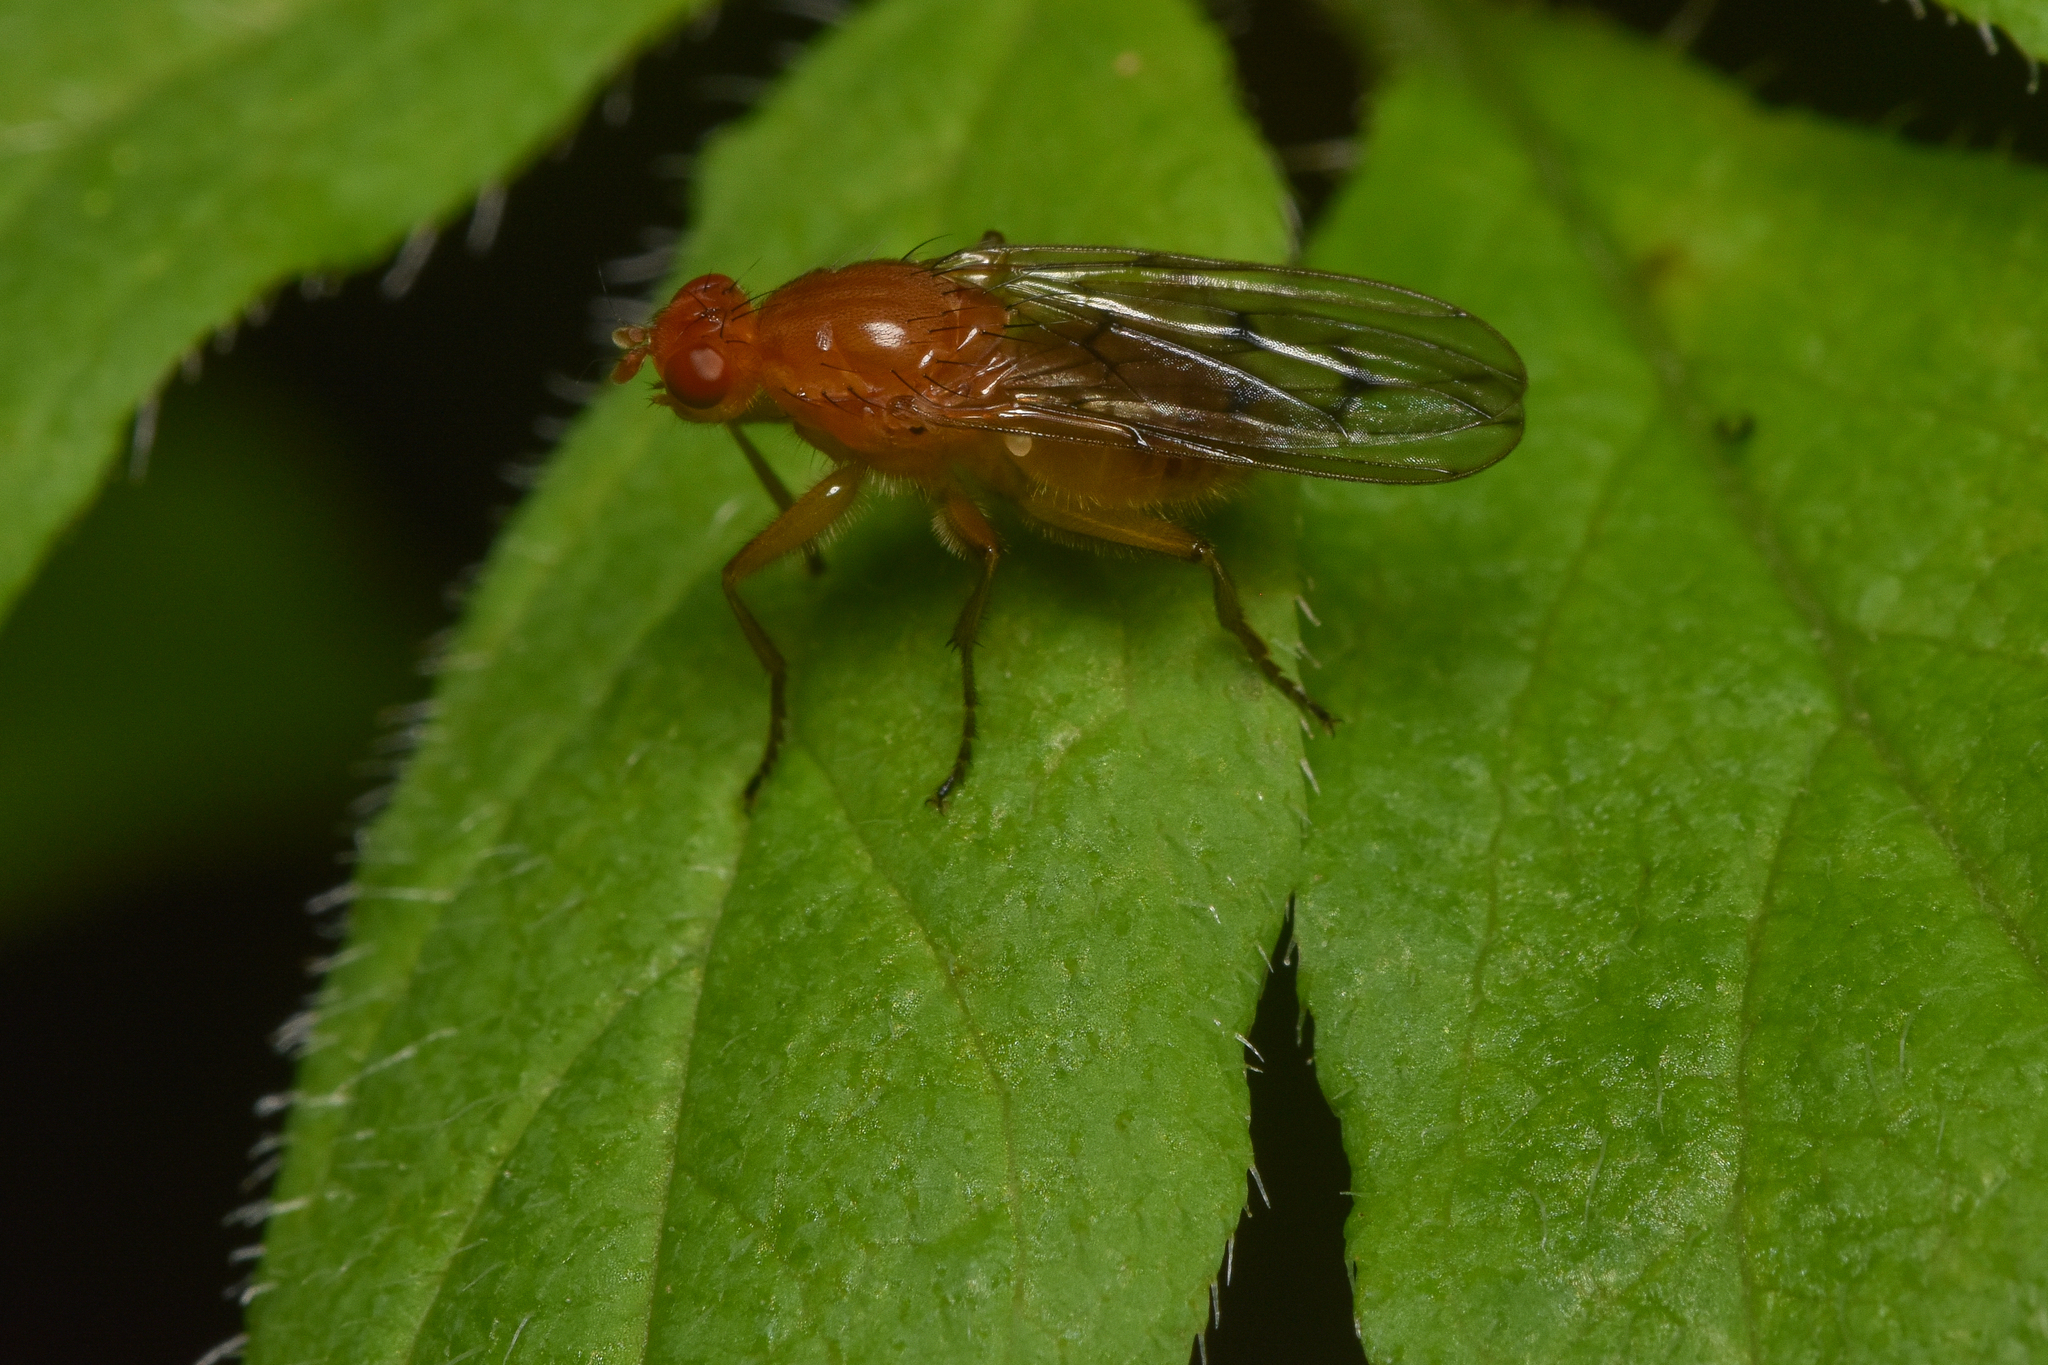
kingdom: Animalia
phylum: Arthropoda
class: Insecta
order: Diptera
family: Dryomyzidae
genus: Dryomyza
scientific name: Dryomyza anilis
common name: Marsh fly
